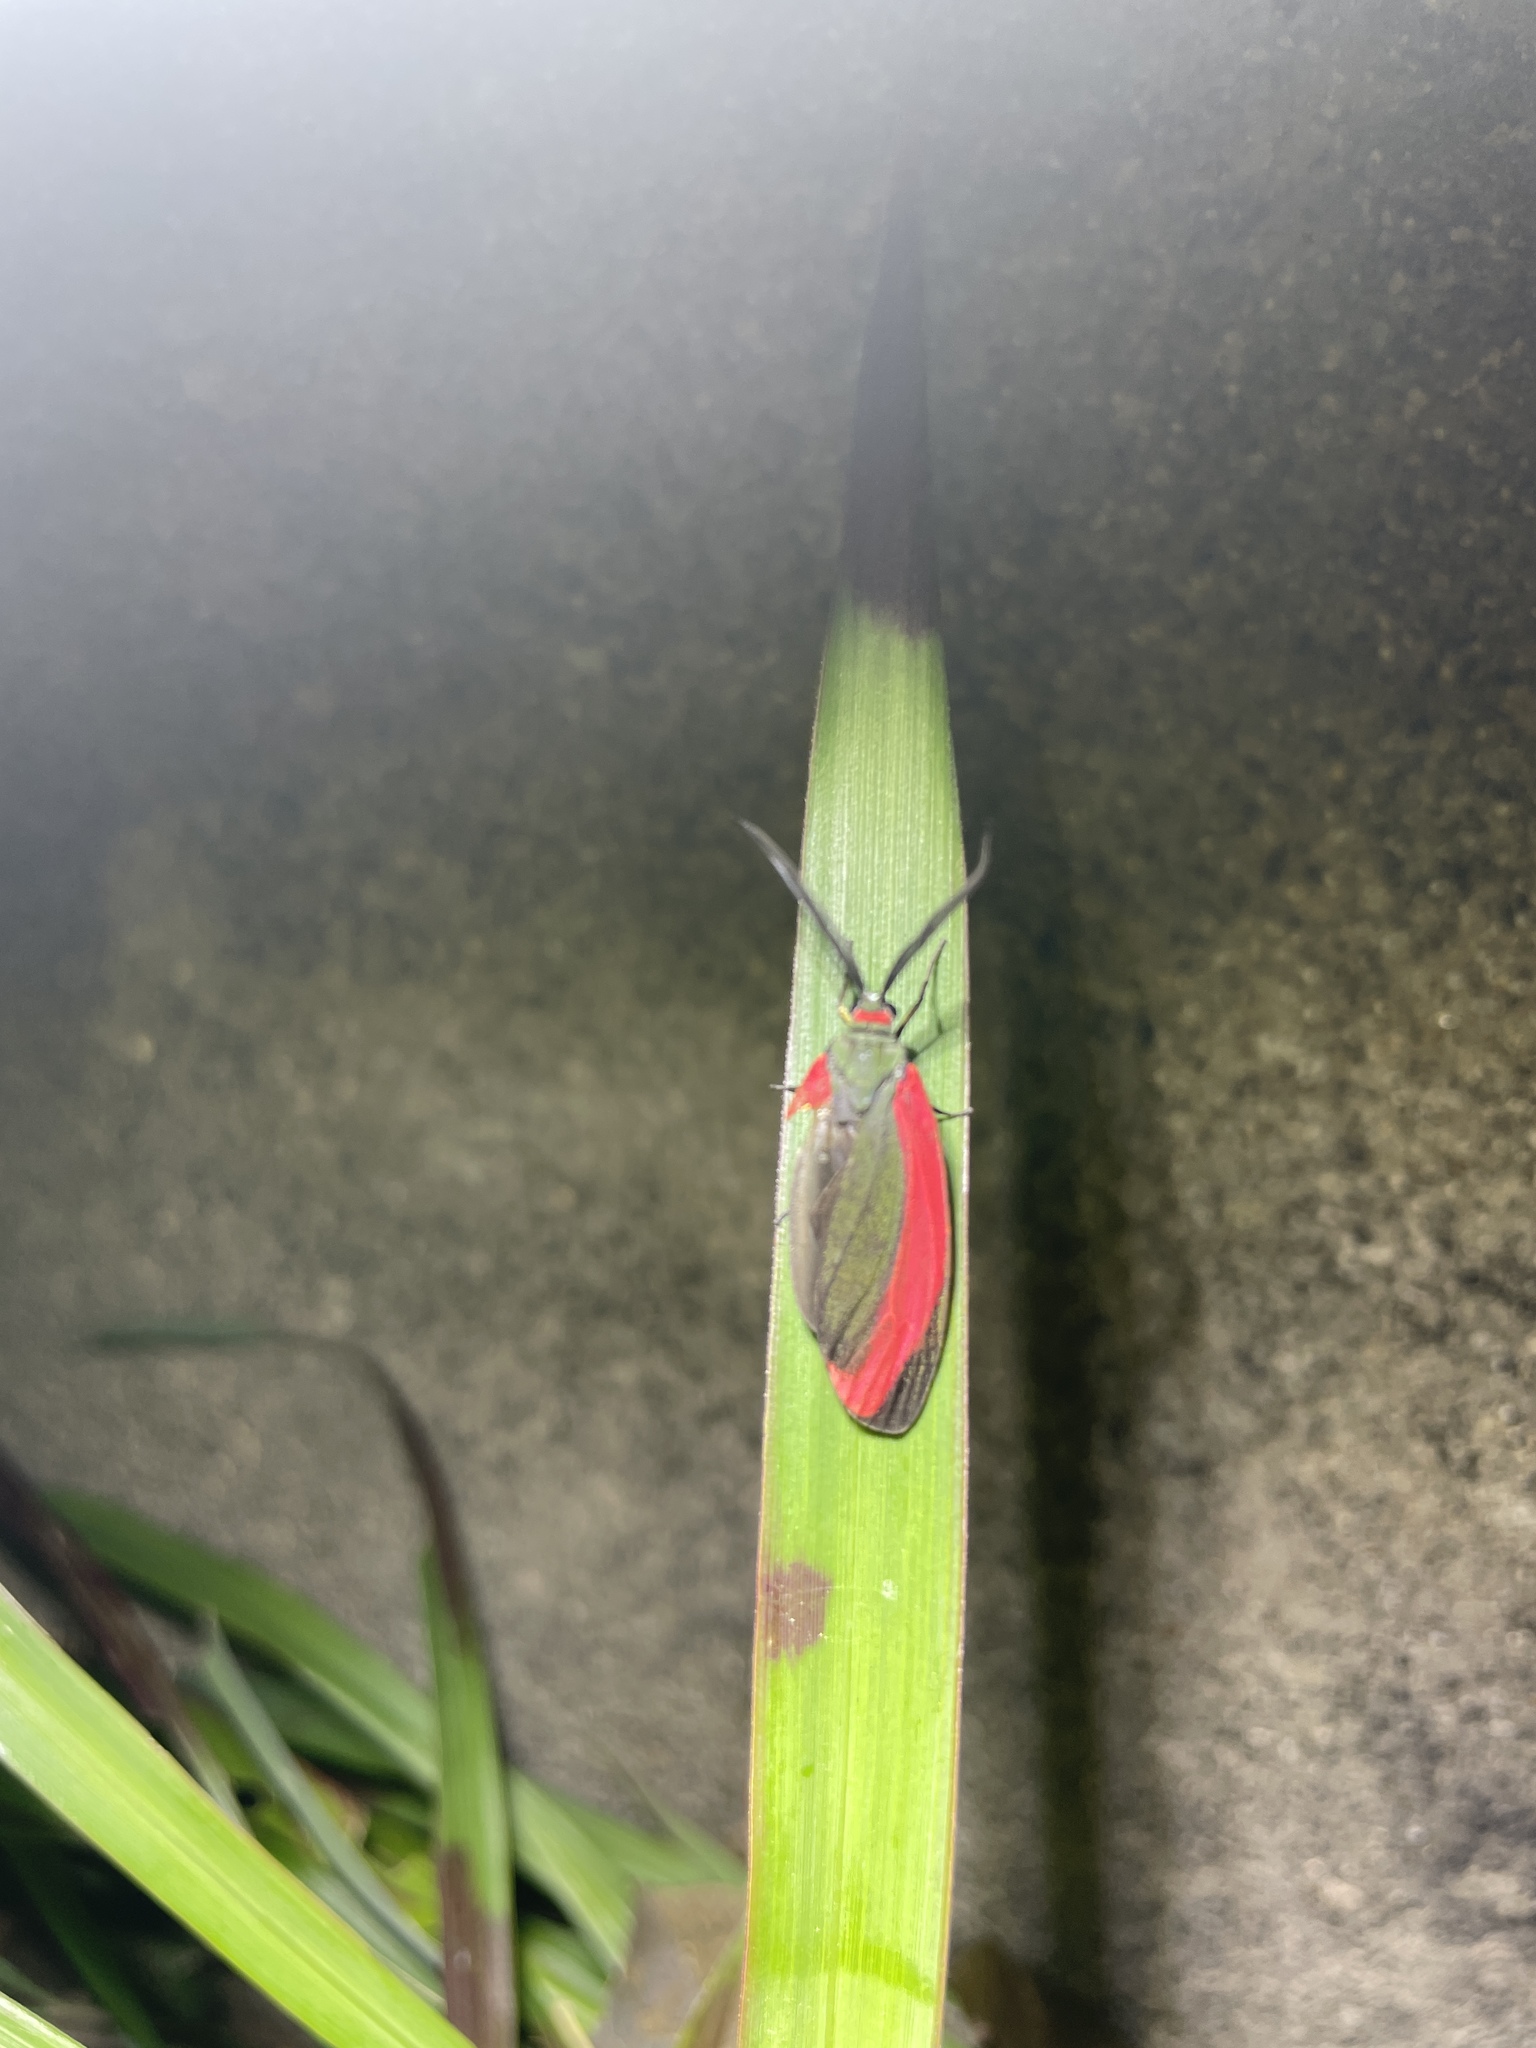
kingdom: Animalia
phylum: Arthropoda
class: Insecta
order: Lepidoptera
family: Zygaenidae
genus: Retina
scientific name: Retina rubrivitta
